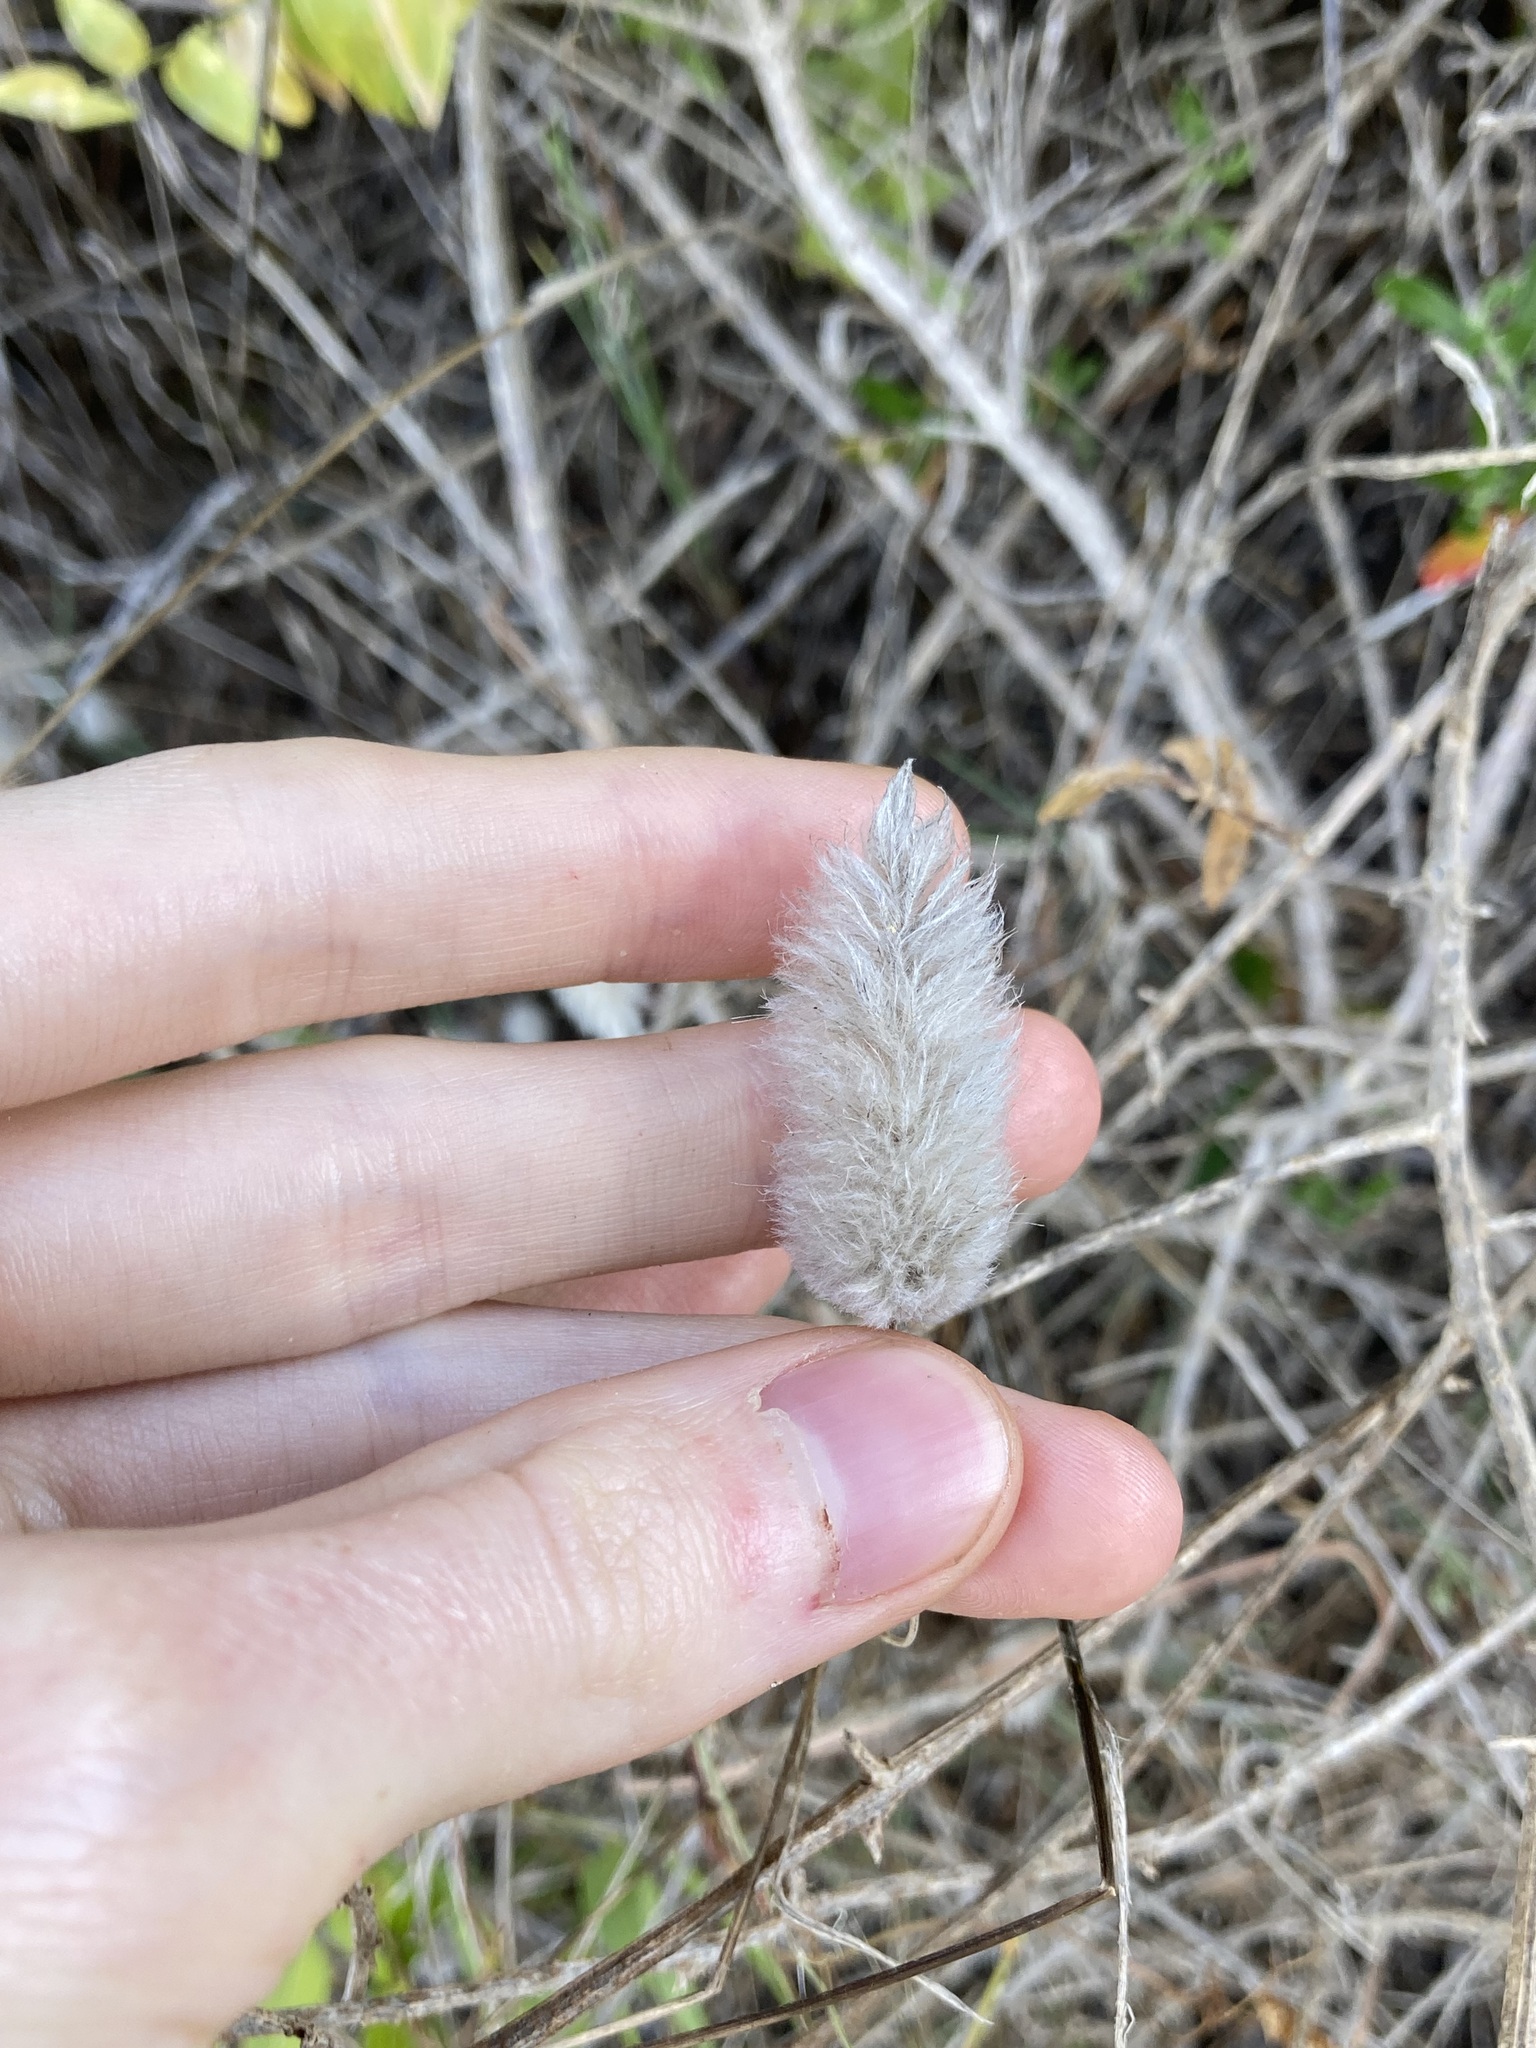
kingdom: Plantae
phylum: Tracheophyta
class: Liliopsida
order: Poales
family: Poaceae
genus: Lagurus
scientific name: Lagurus ovatus
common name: Hare's-tail
